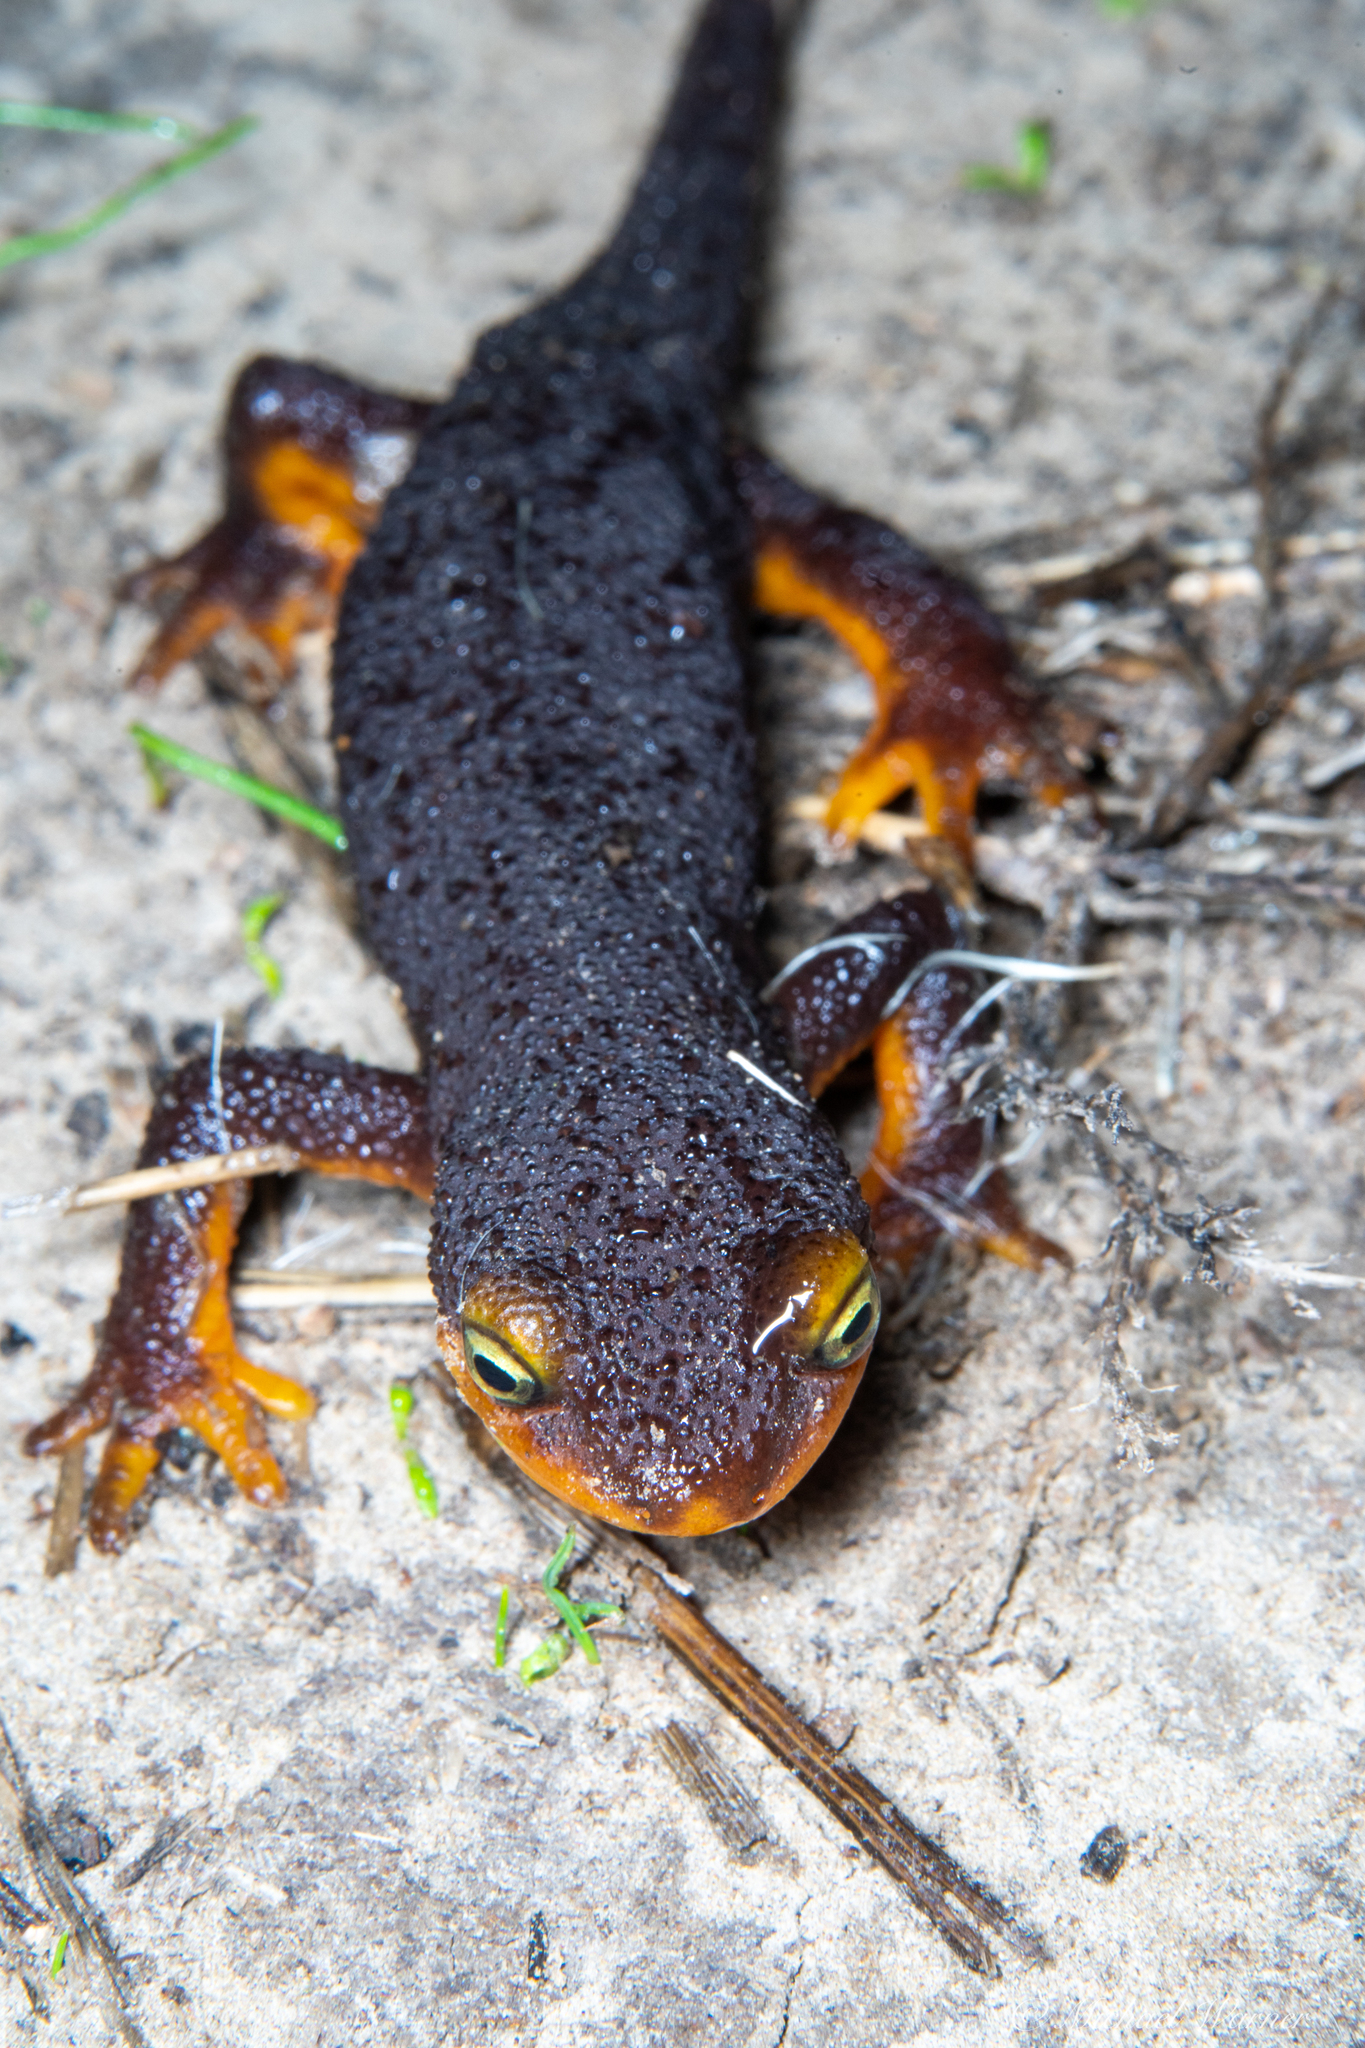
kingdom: Animalia
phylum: Chordata
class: Amphibia
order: Caudata
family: Salamandridae
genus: Taricha
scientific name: Taricha torosa
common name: California newt
